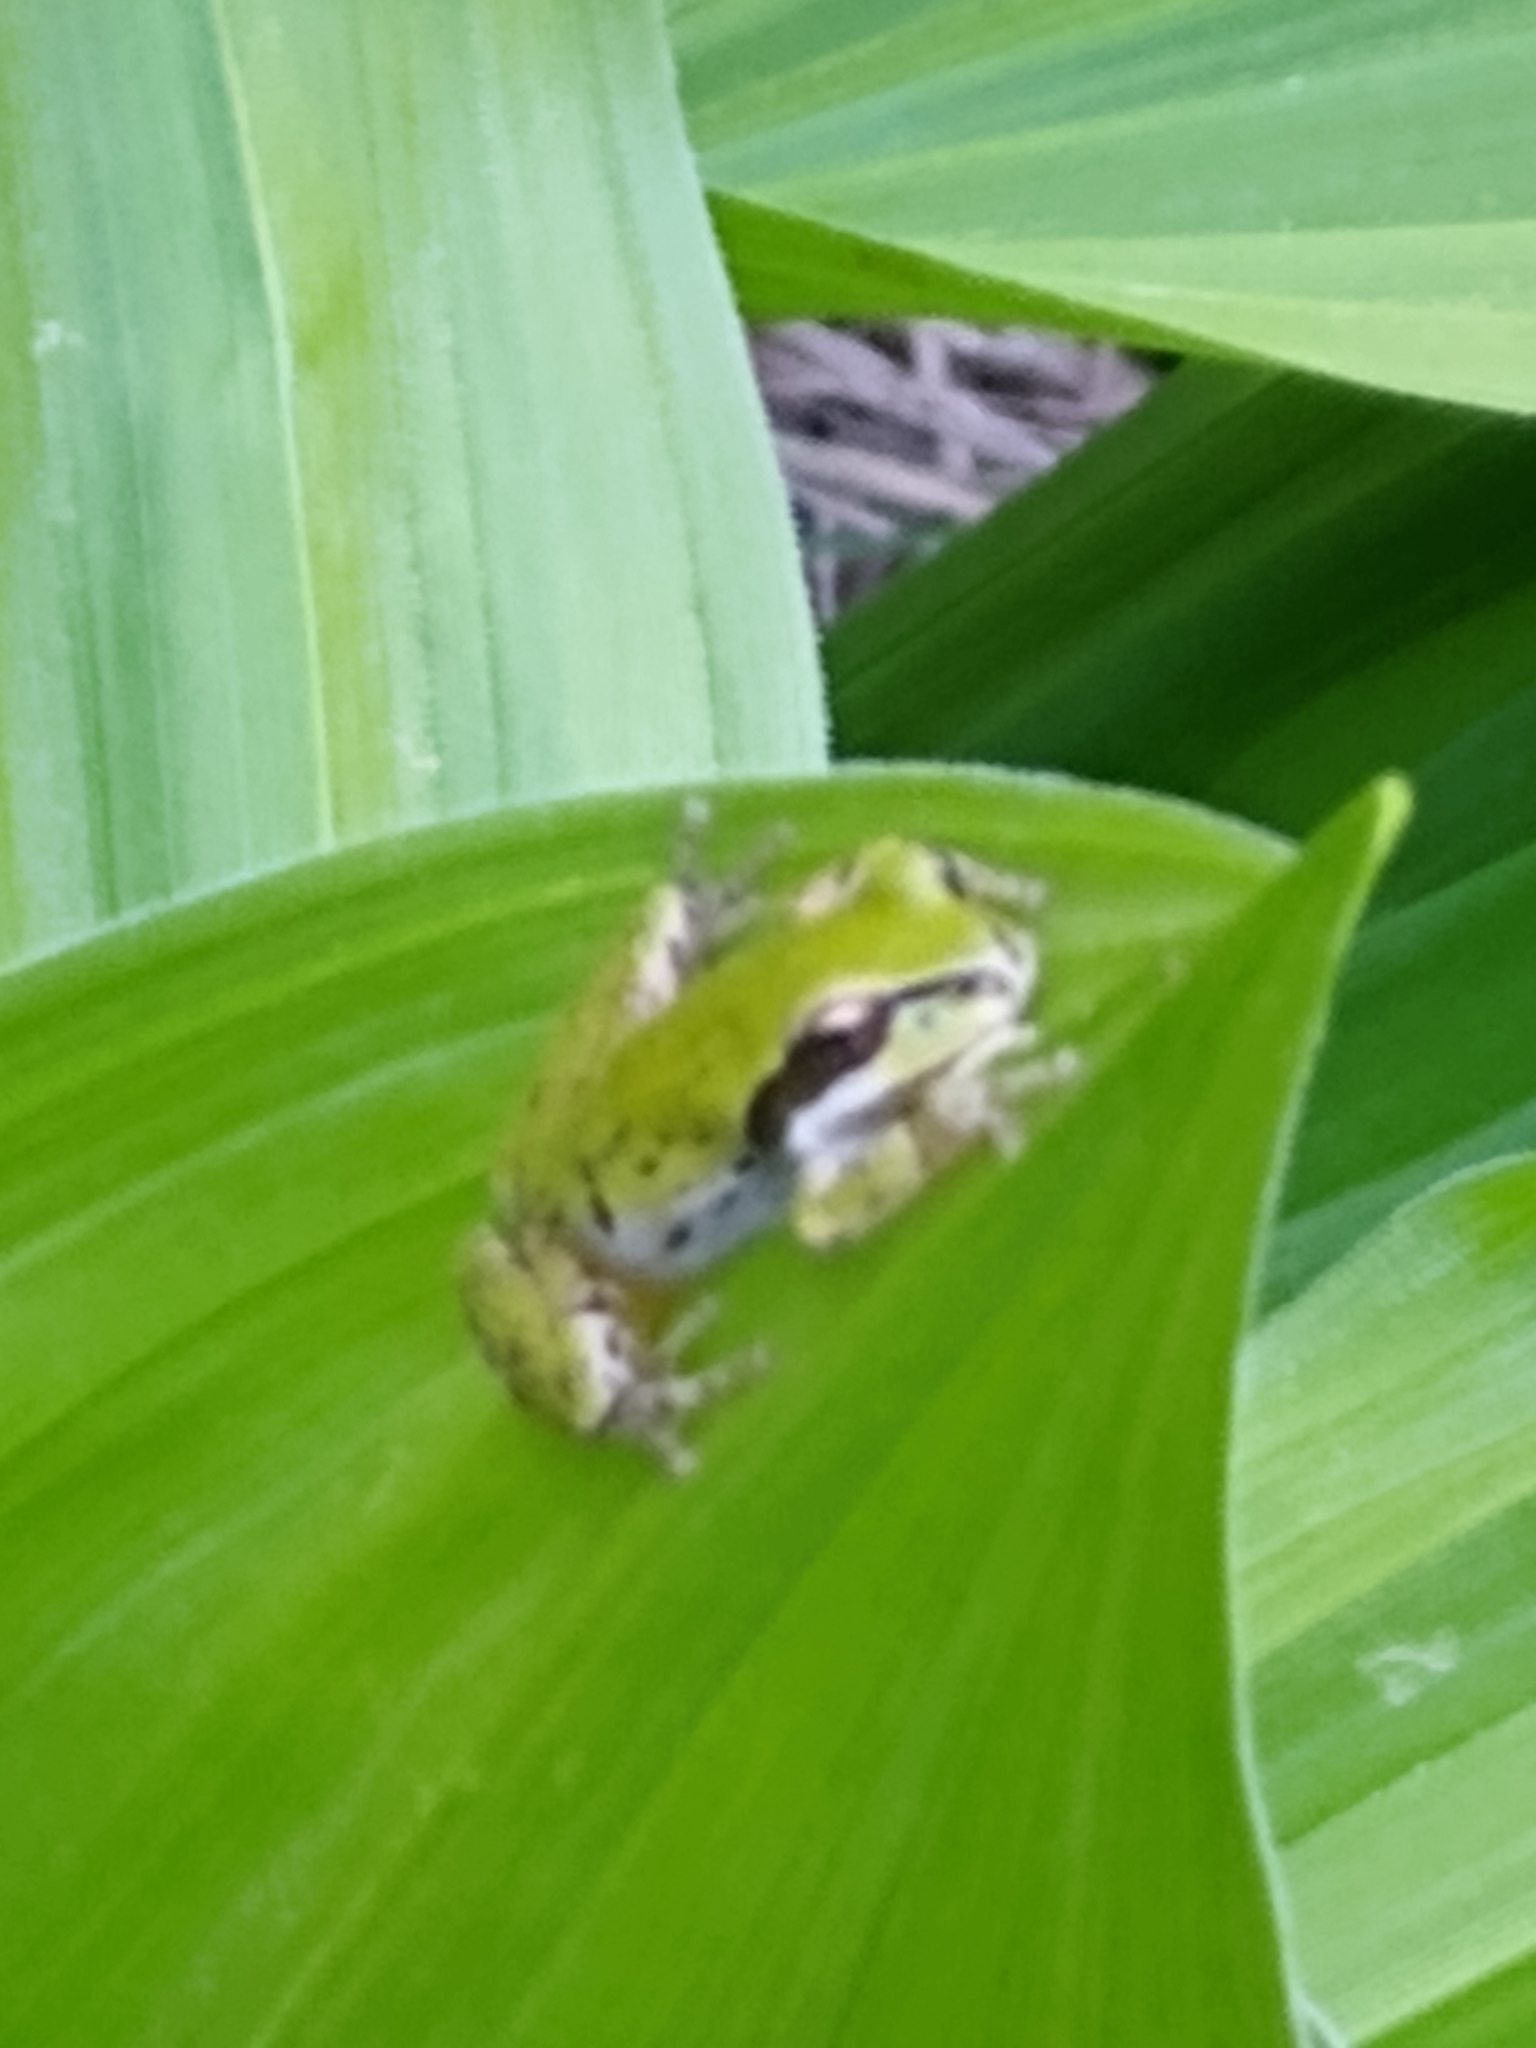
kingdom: Animalia
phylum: Chordata
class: Amphibia
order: Anura
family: Hylidae
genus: Pseudacris
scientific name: Pseudacris regilla
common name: Pacific chorus frog
